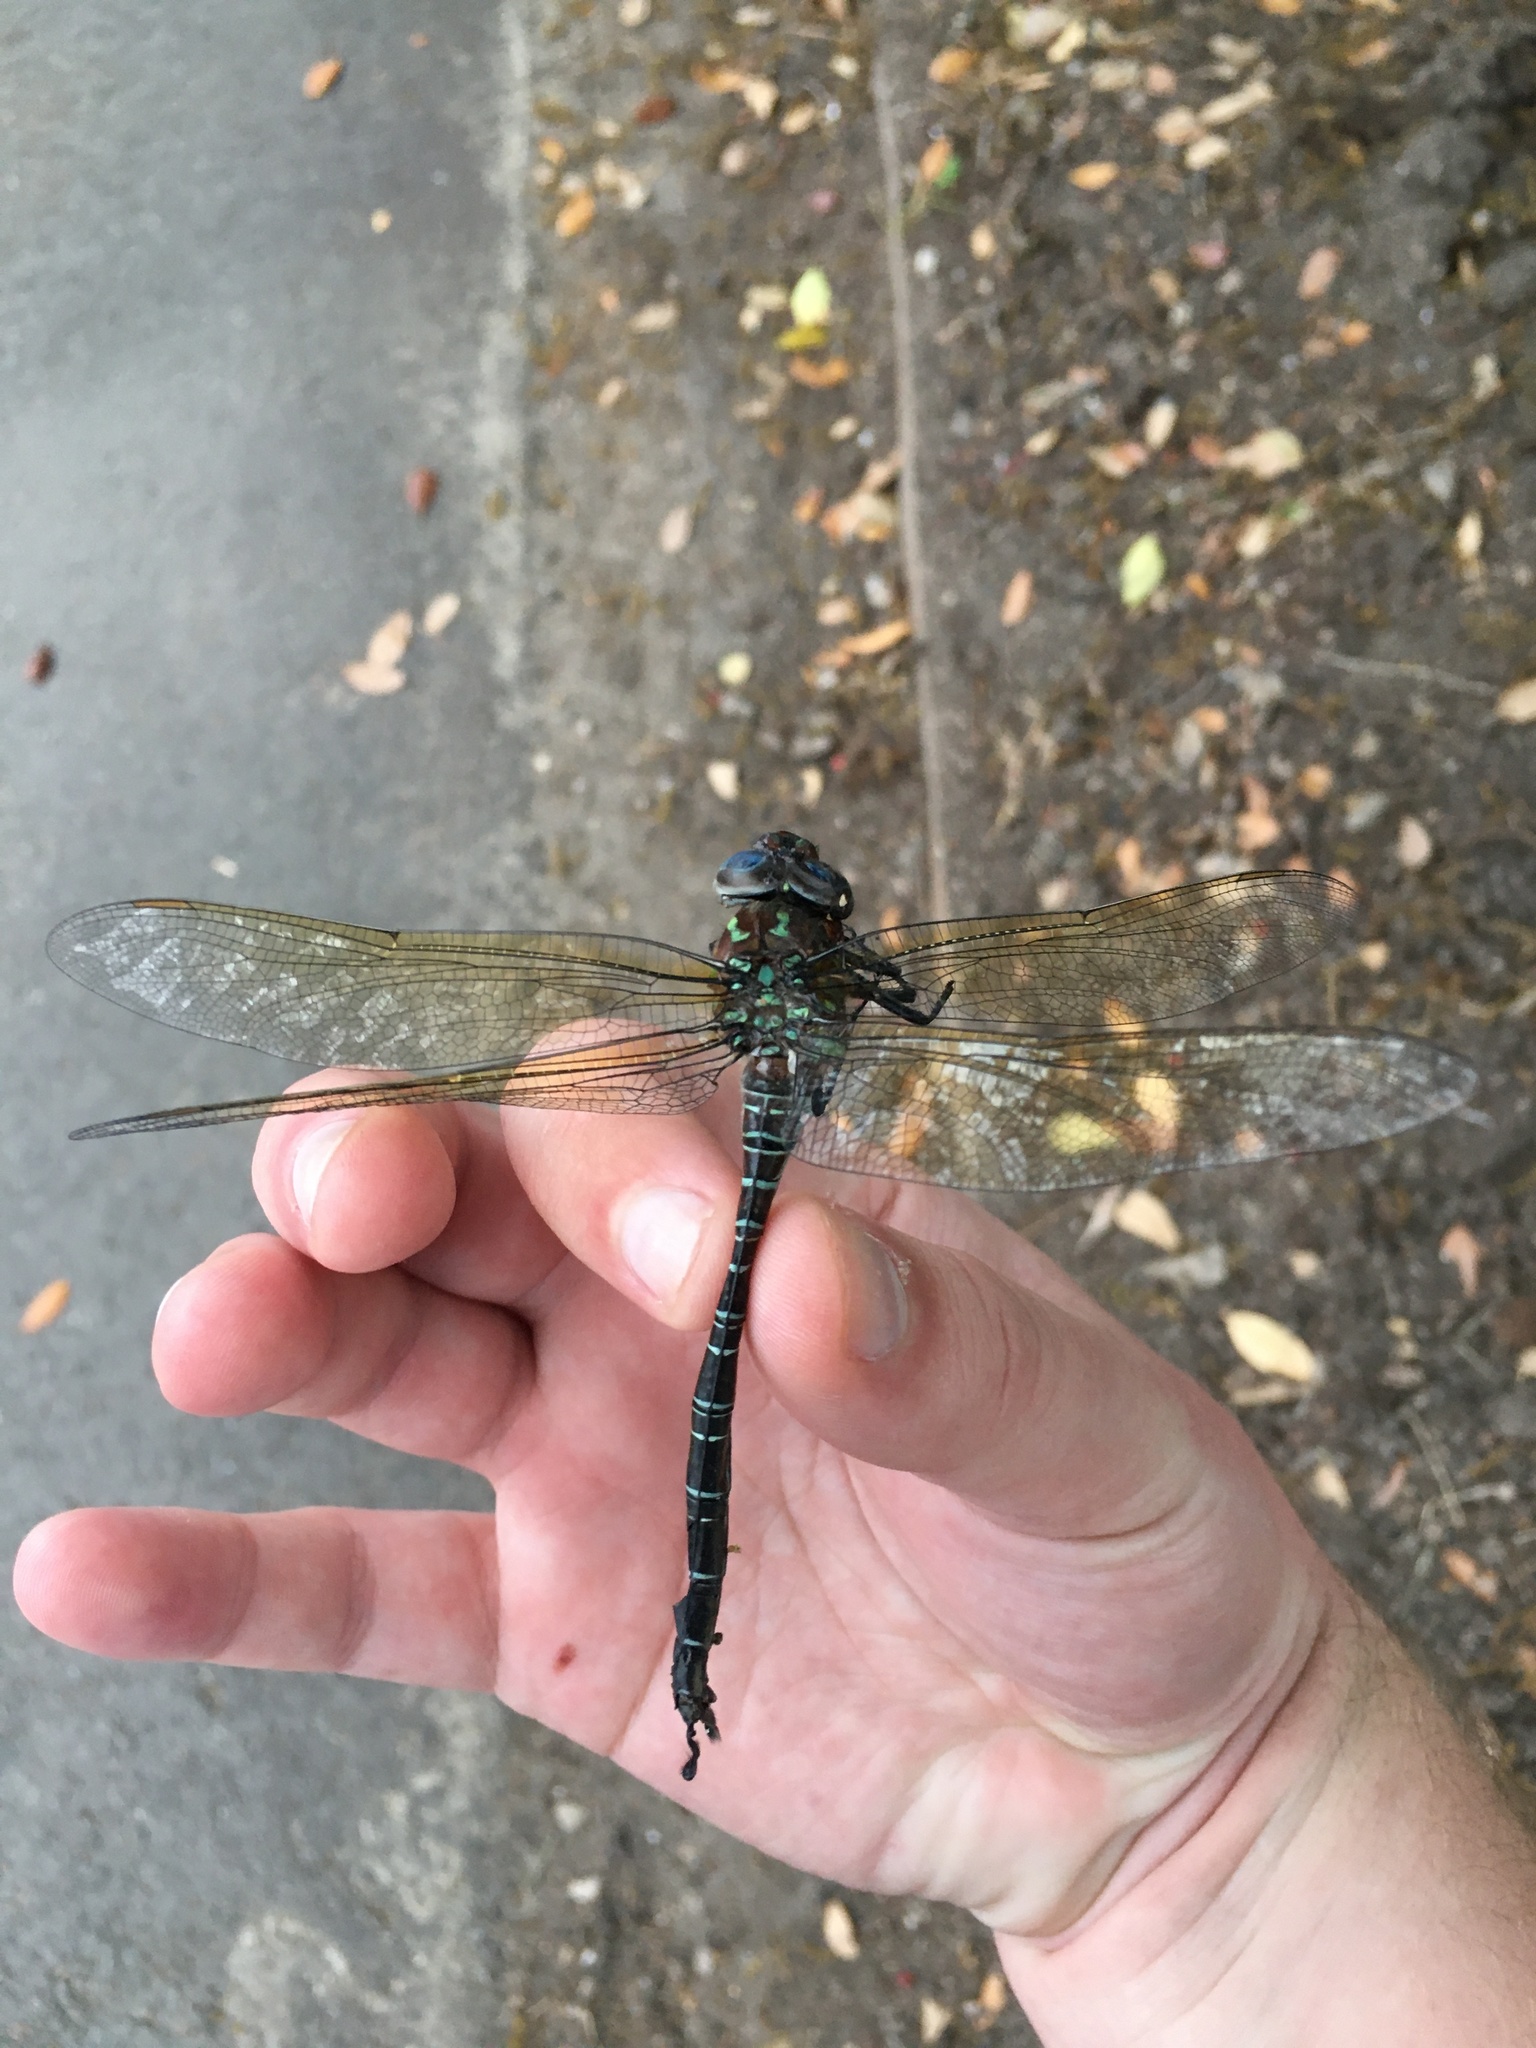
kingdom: Animalia
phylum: Arthropoda
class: Insecta
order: Odonata
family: Aeshnidae
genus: Epiaeschna
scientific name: Epiaeschna heros
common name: Swamp darner
